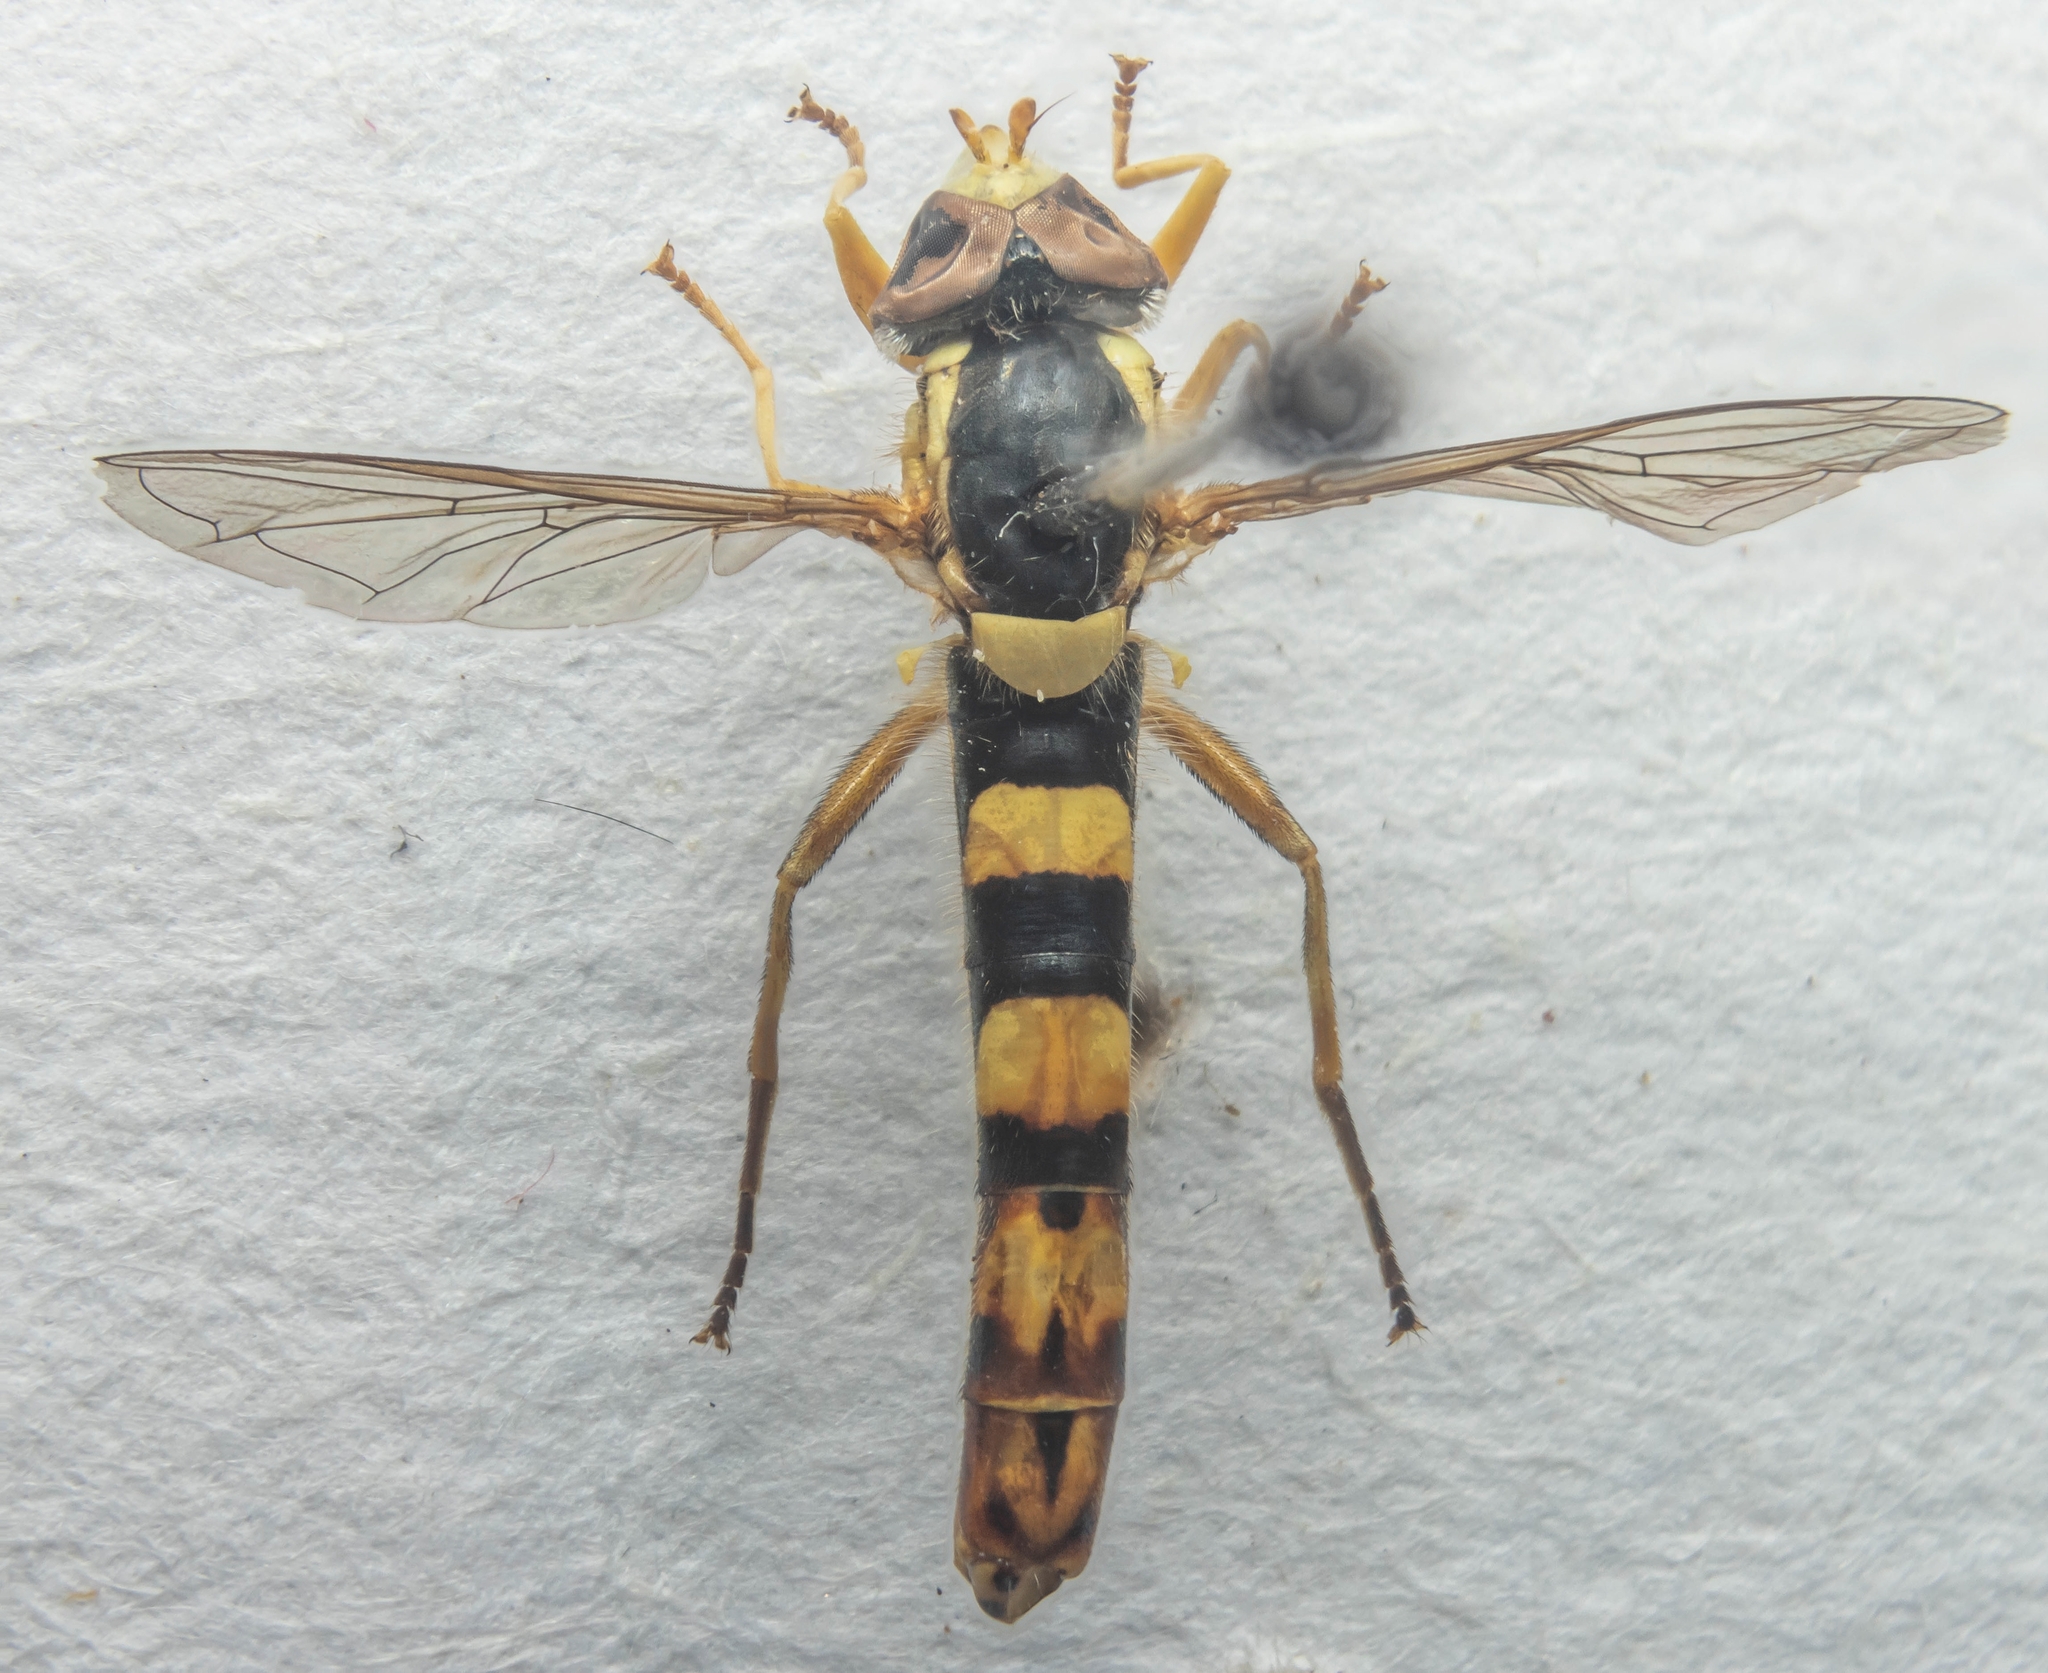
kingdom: Animalia
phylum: Arthropoda
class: Insecta
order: Diptera
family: Syrphidae
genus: Sphaerophoria
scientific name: Sphaerophoria scripta
